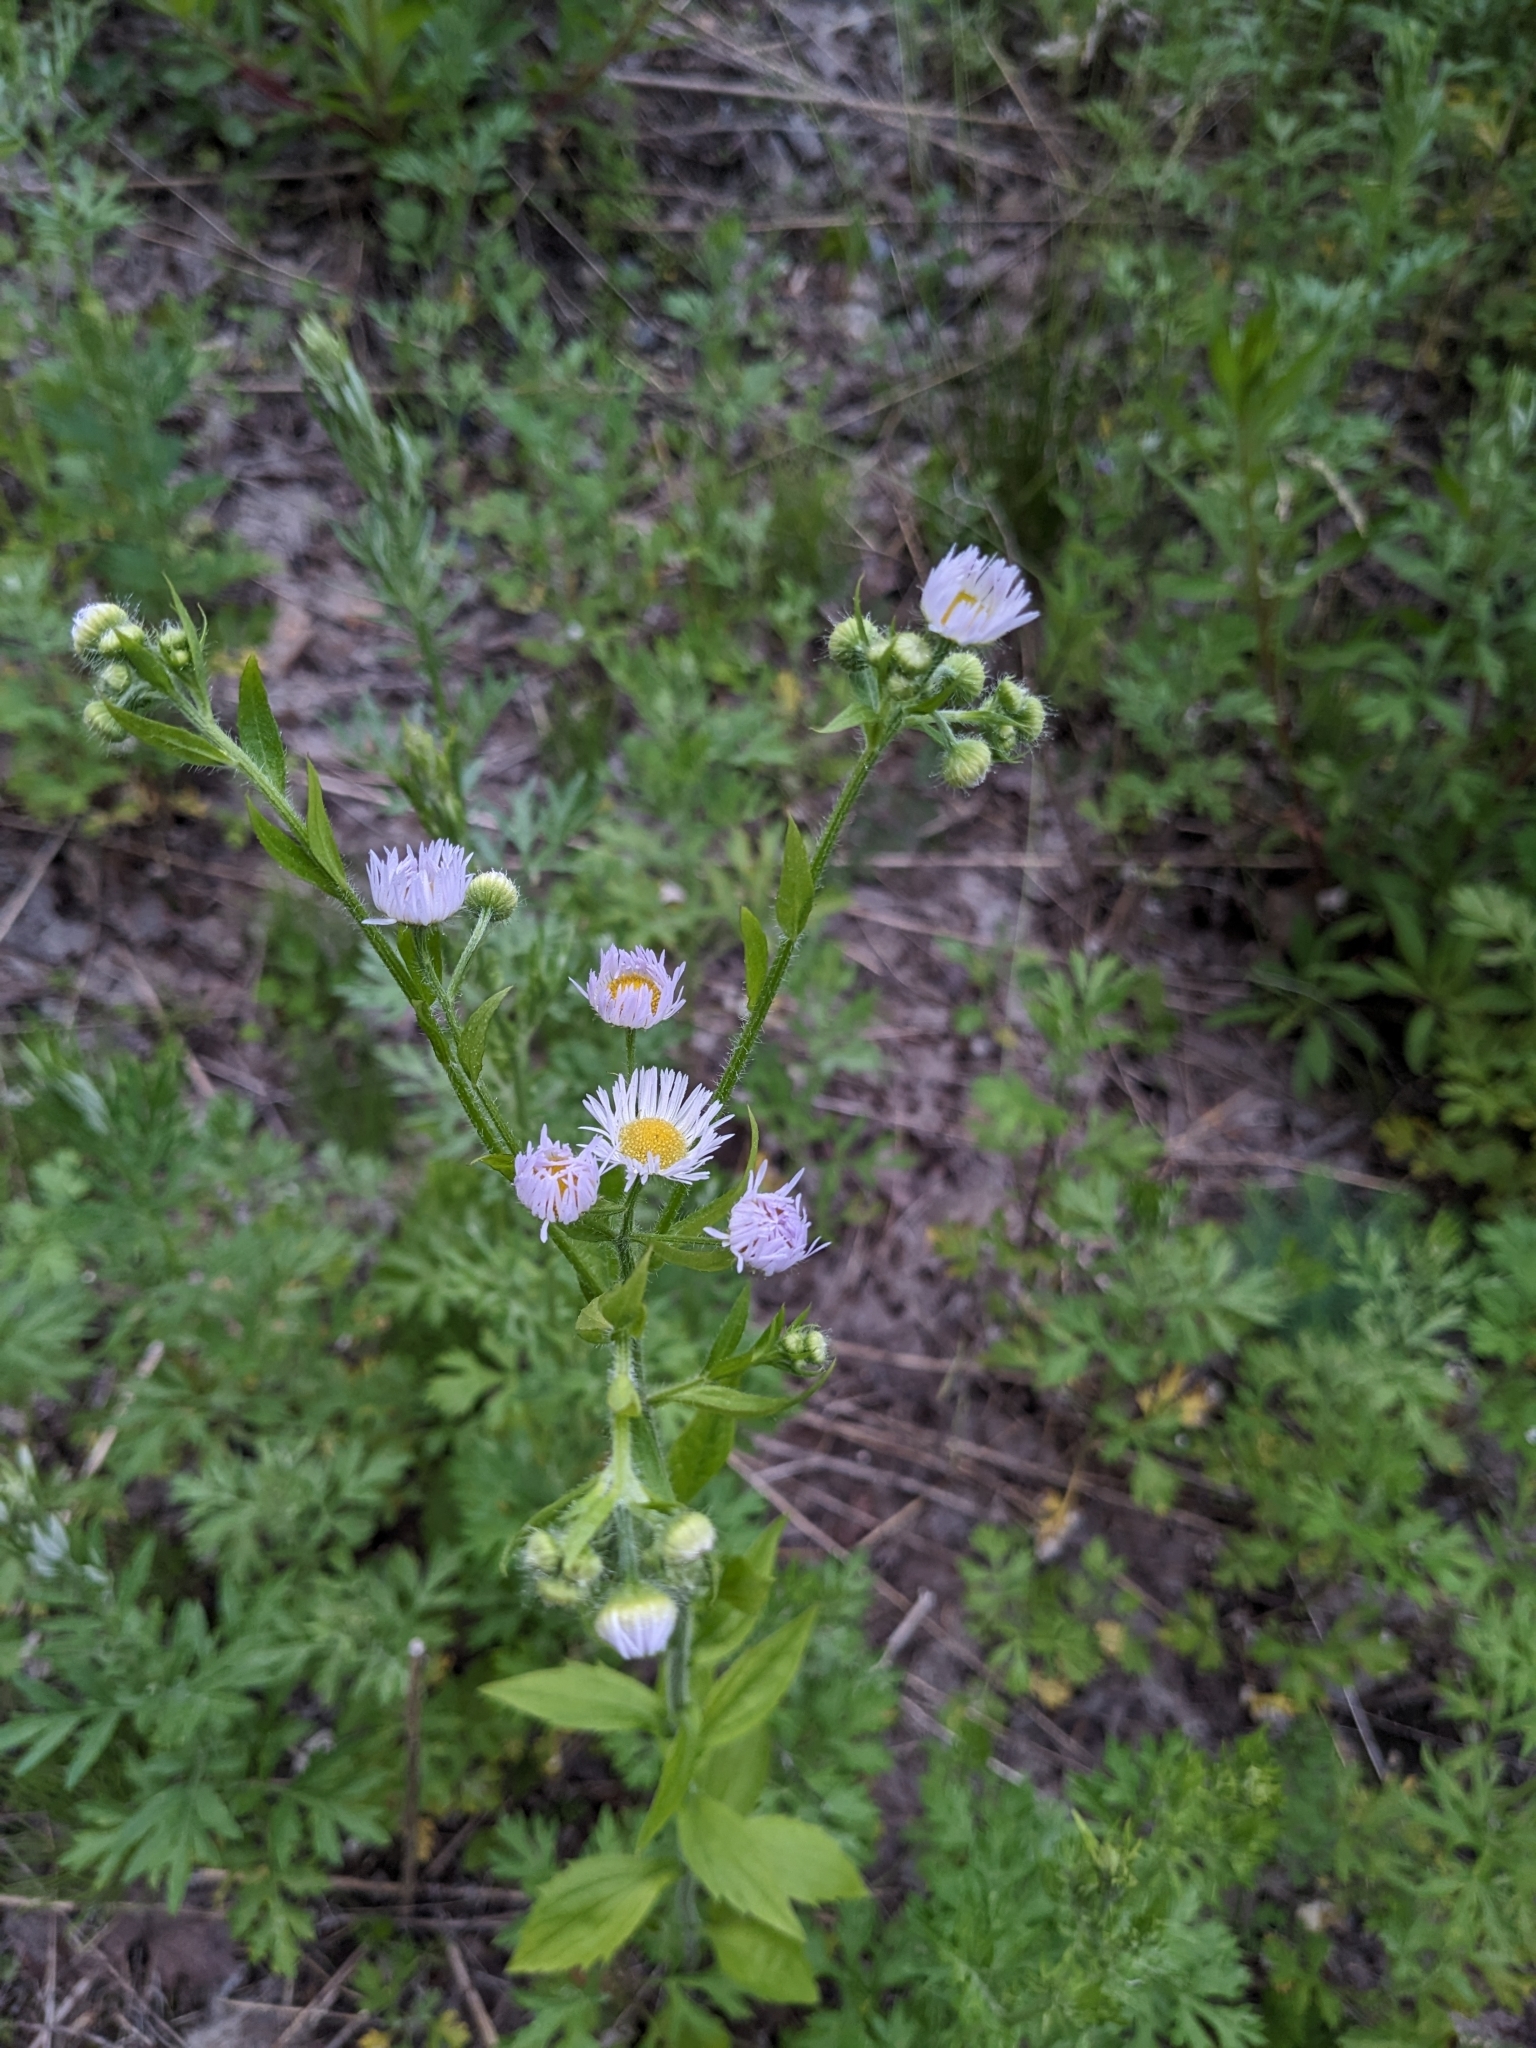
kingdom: Plantae
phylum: Tracheophyta
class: Magnoliopsida
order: Asterales
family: Asteraceae
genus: Erigeron
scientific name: Erigeron annuus
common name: Tall fleabane
